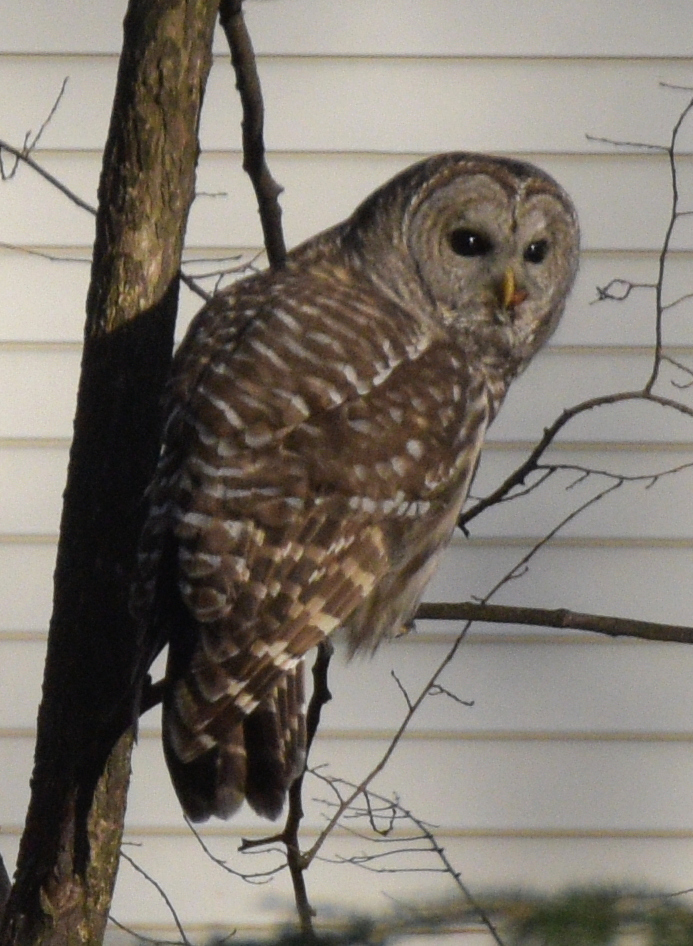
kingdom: Animalia
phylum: Chordata
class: Aves
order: Strigiformes
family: Strigidae
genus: Strix
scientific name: Strix varia
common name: Barred owl
